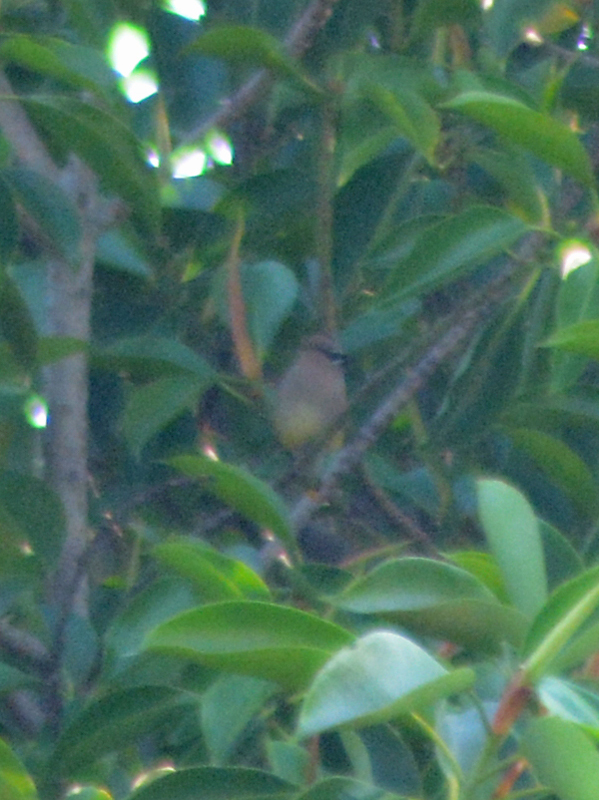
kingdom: Animalia
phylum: Chordata
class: Aves
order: Passeriformes
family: Bombycillidae
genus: Bombycilla
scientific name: Bombycilla cedrorum
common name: Cedar waxwing
